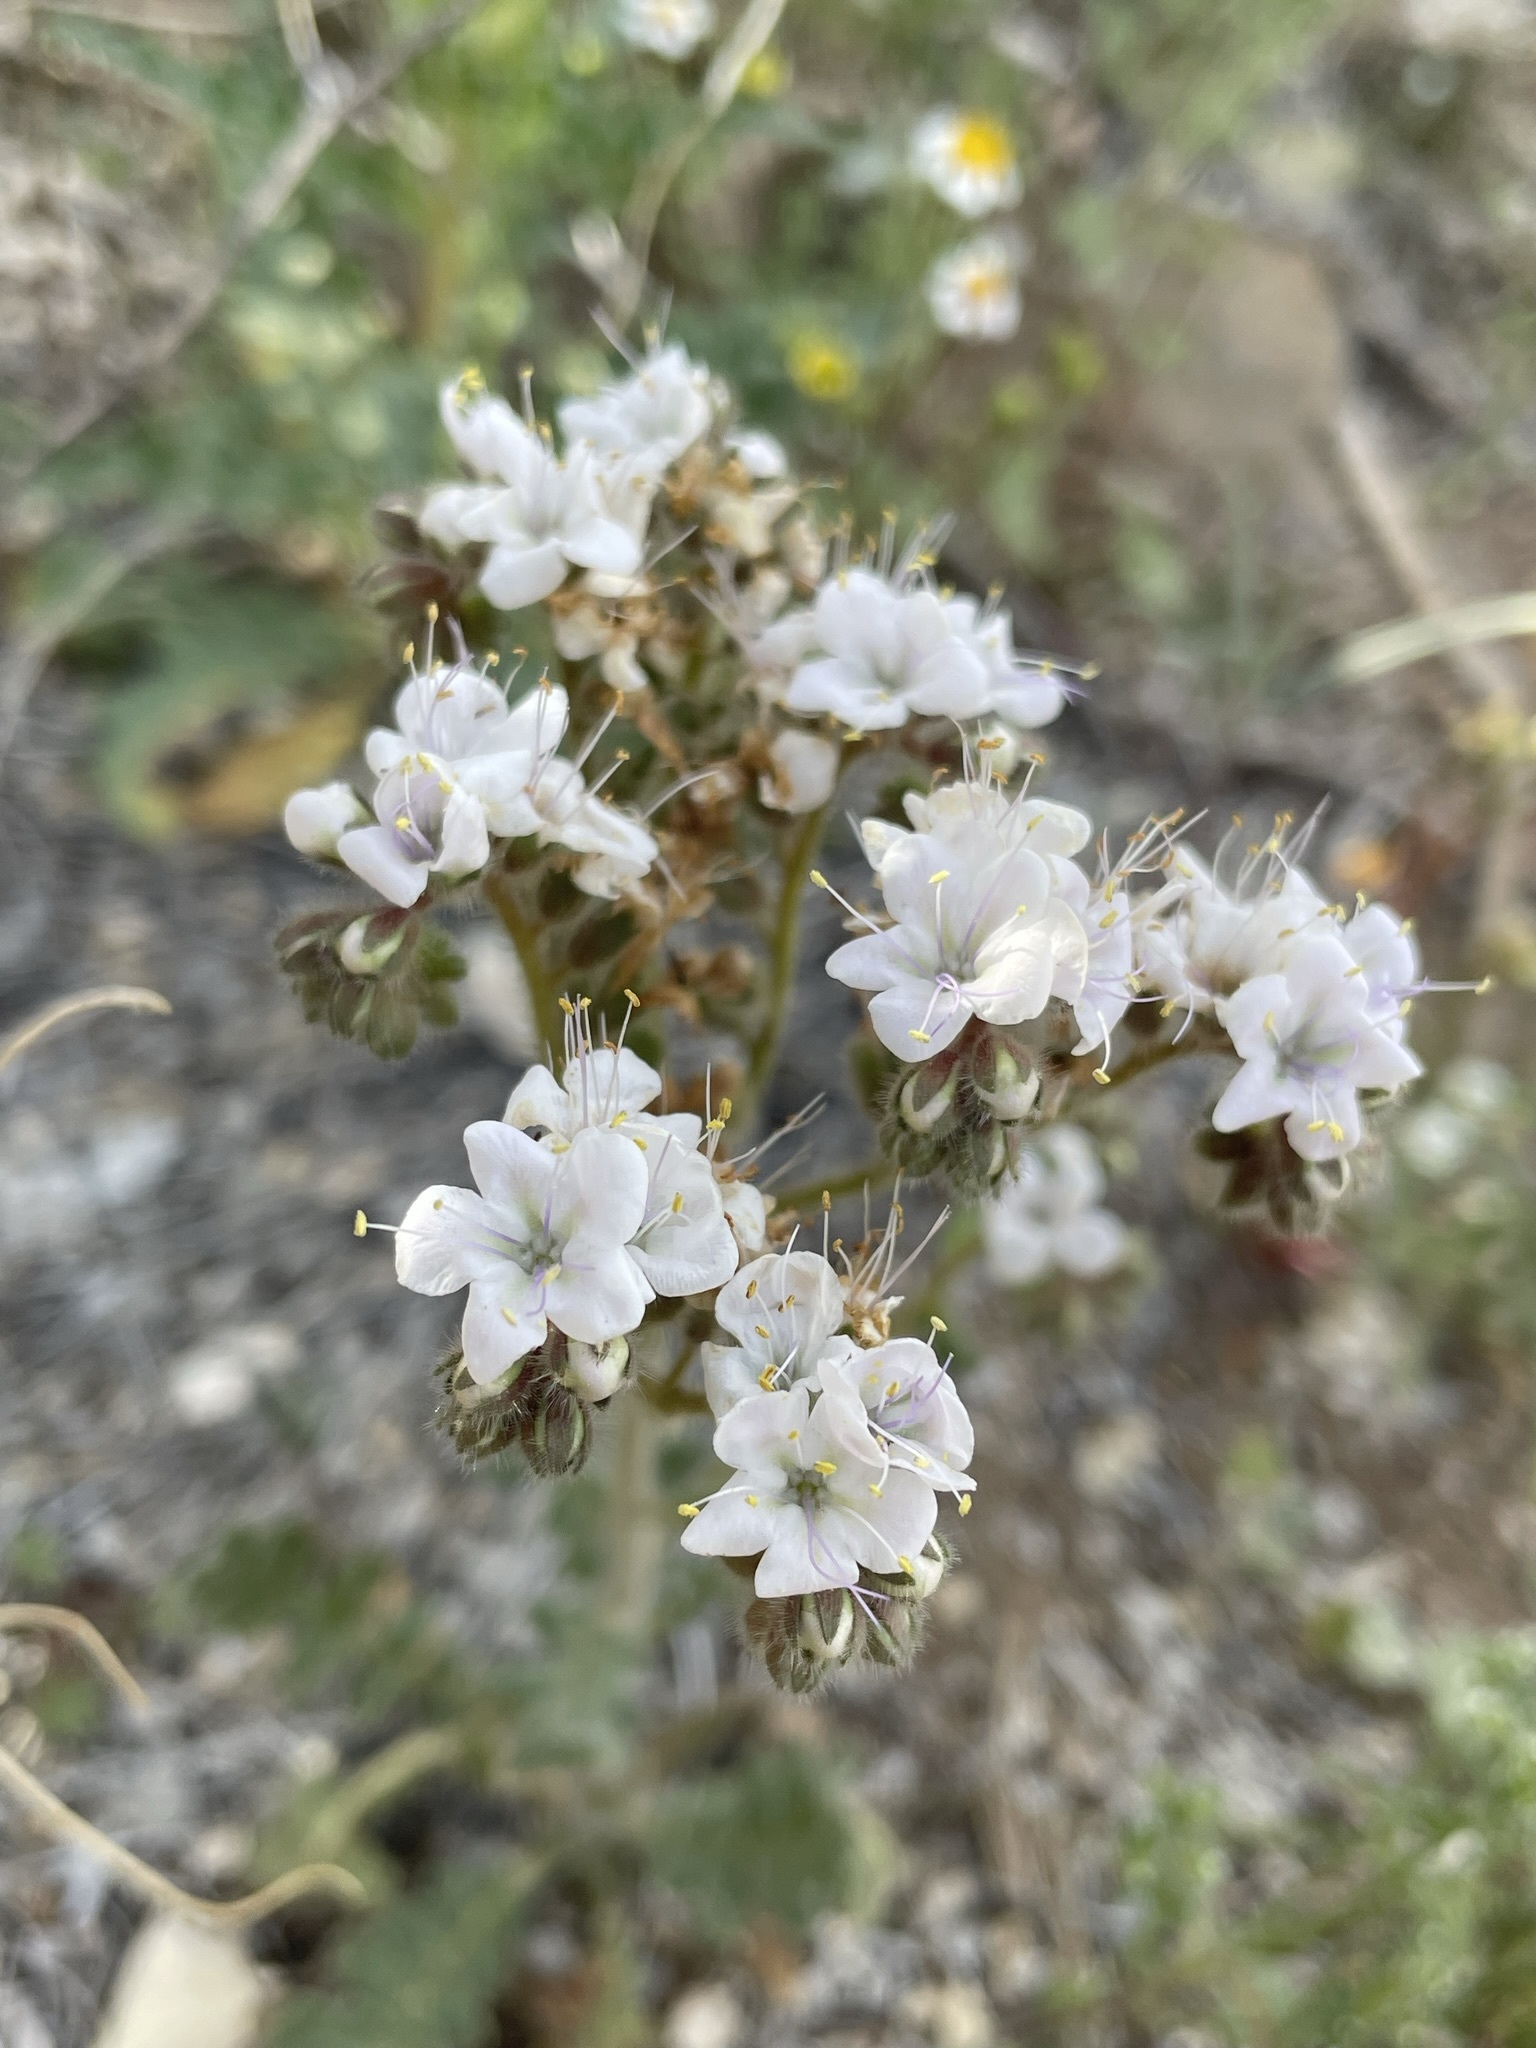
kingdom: Plantae
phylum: Tracheophyta
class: Magnoliopsida
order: Boraginales
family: Hydrophyllaceae
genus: Phacelia
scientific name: Phacelia crenulata
